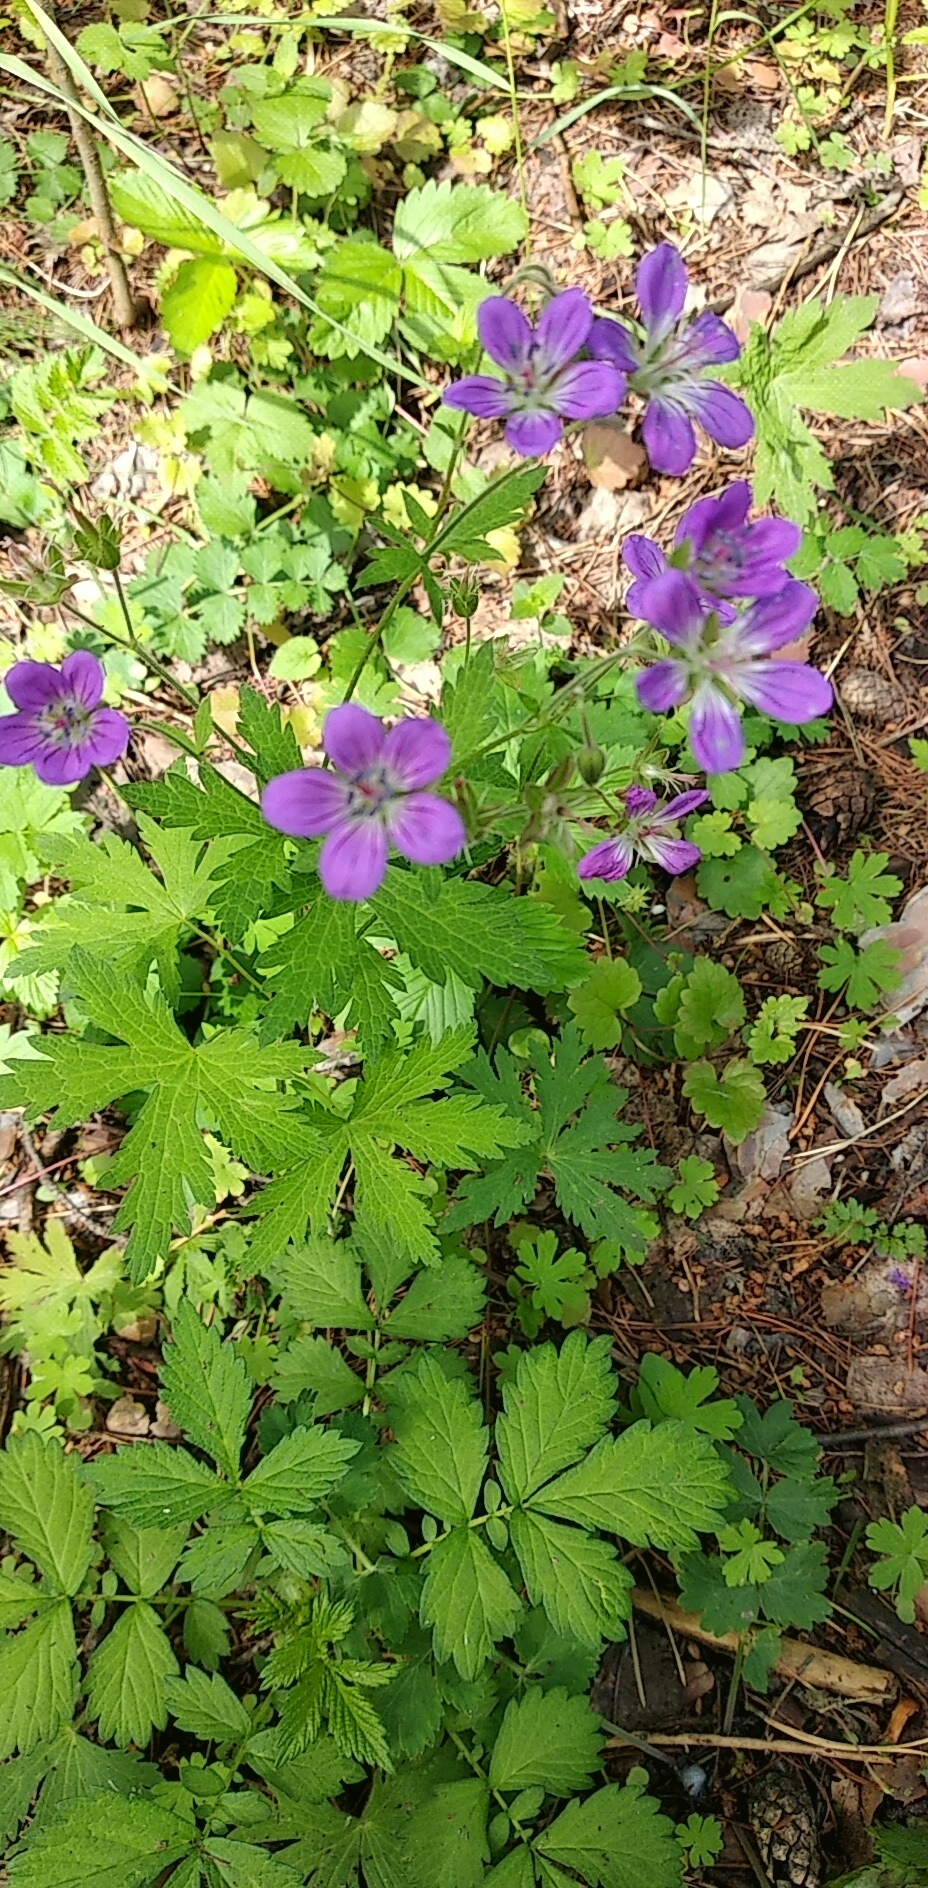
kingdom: Plantae
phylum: Tracheophyta
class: Magnoliopsida
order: Geraniales
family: Geraniaceae
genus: Geranium
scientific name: Geranium sylvaticum
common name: Wood crane's-bill
